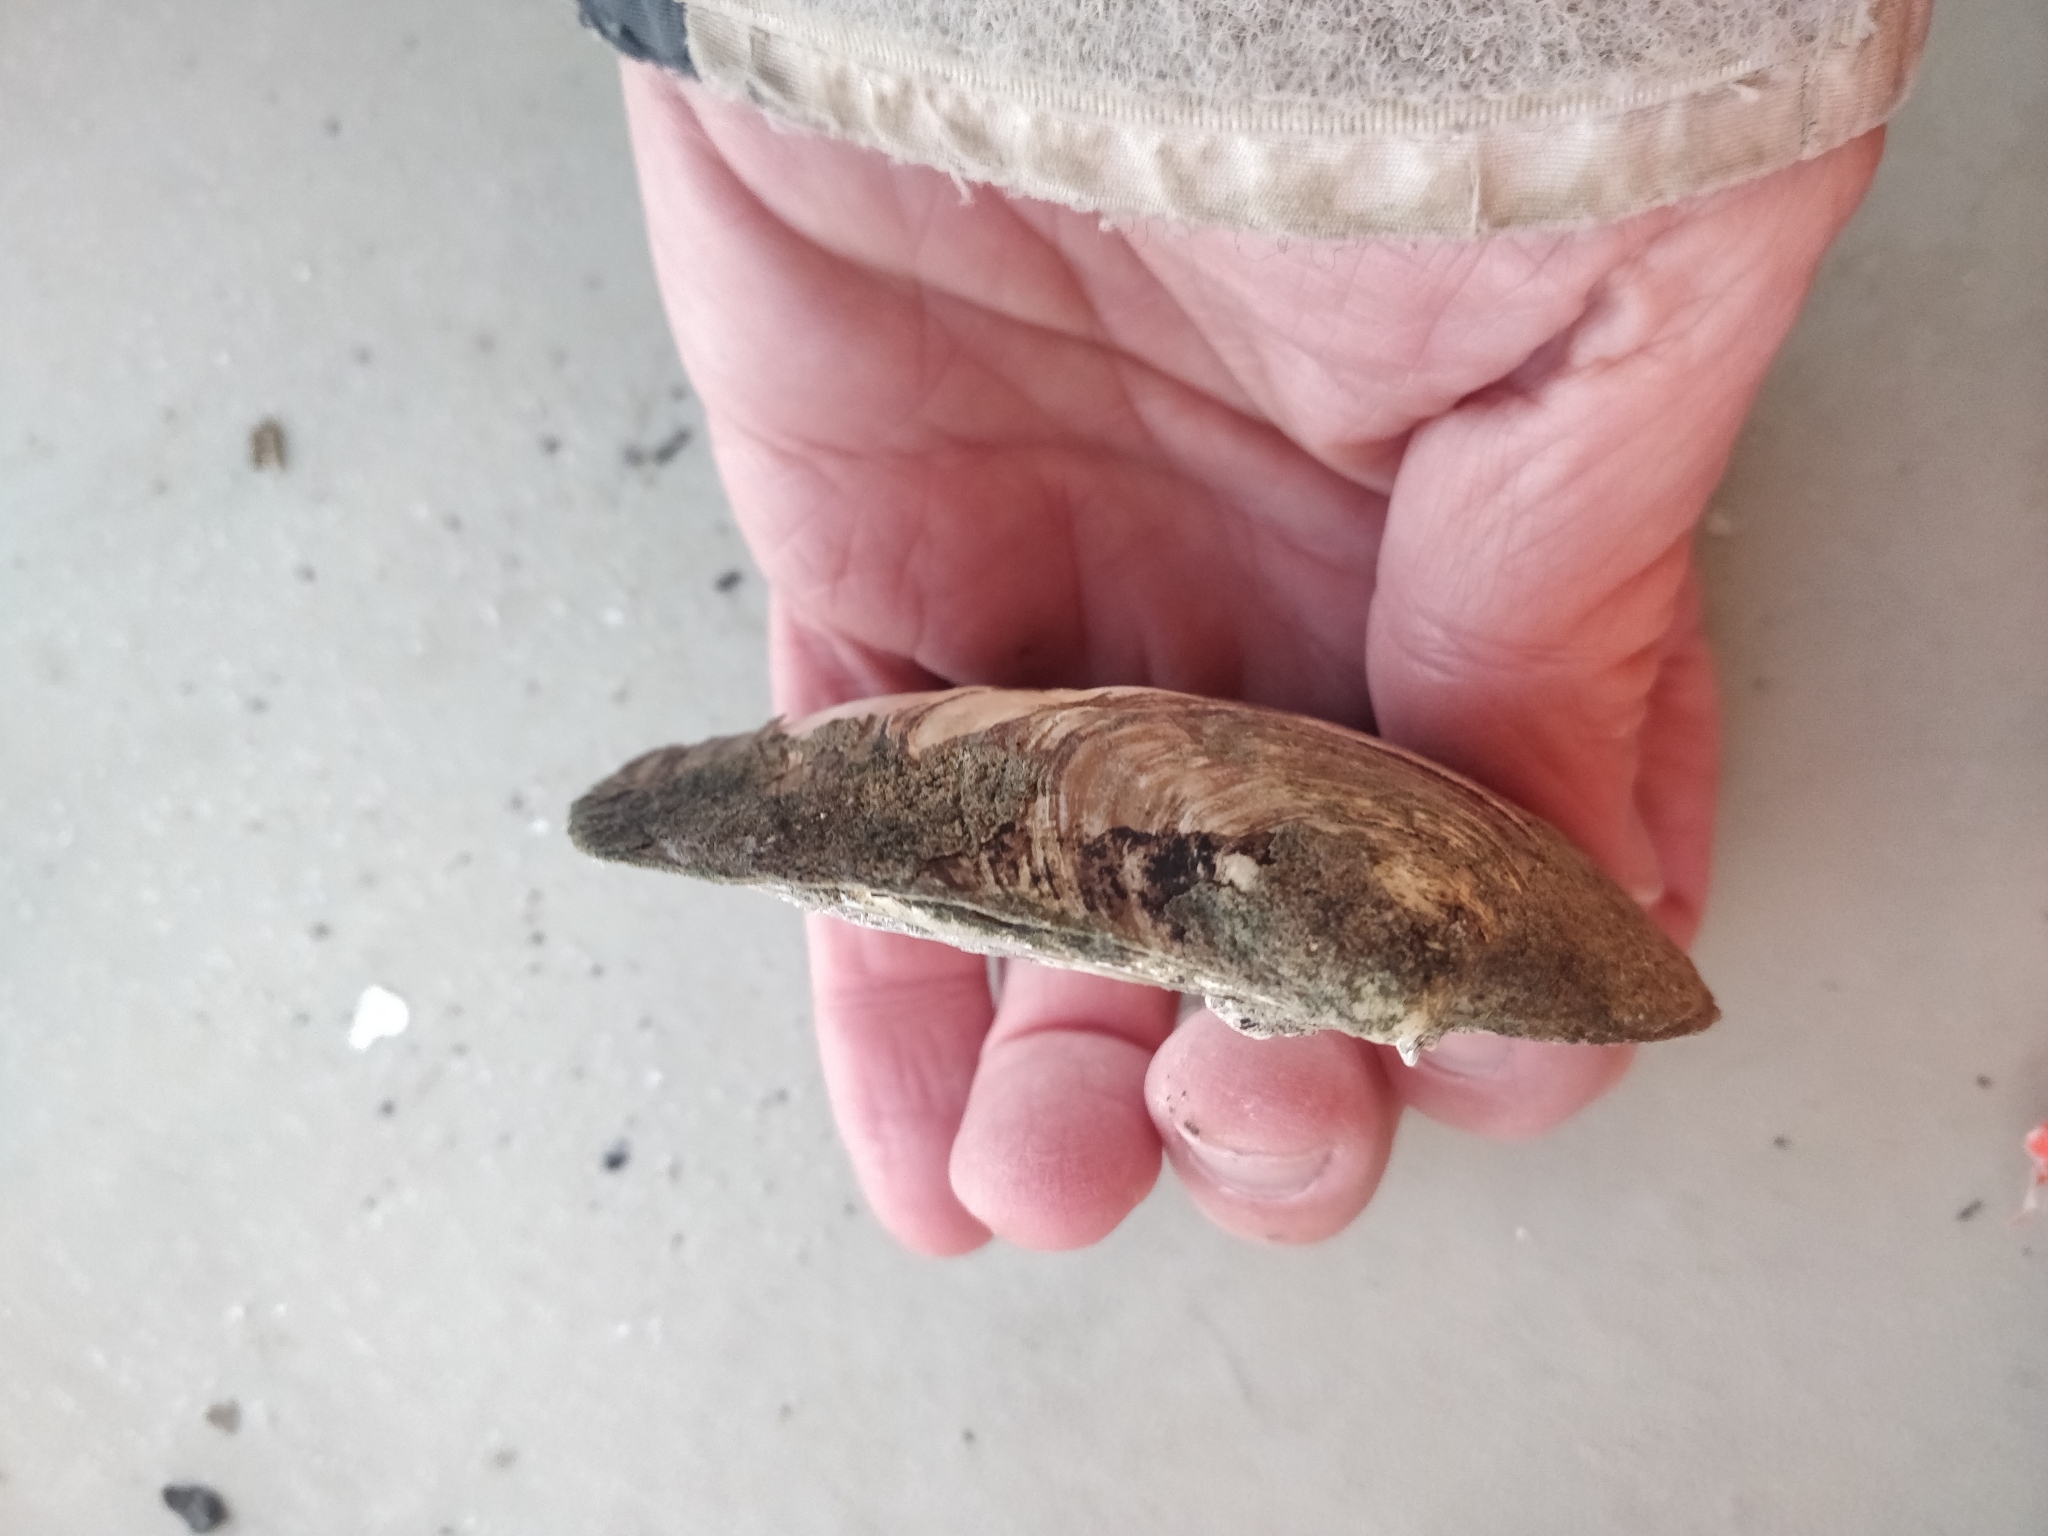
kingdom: Animalia
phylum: Mollusca
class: Bivalvia
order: Unionida
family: Unionidae
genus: Amblema
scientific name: Amblema plicata
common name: Threeridge
